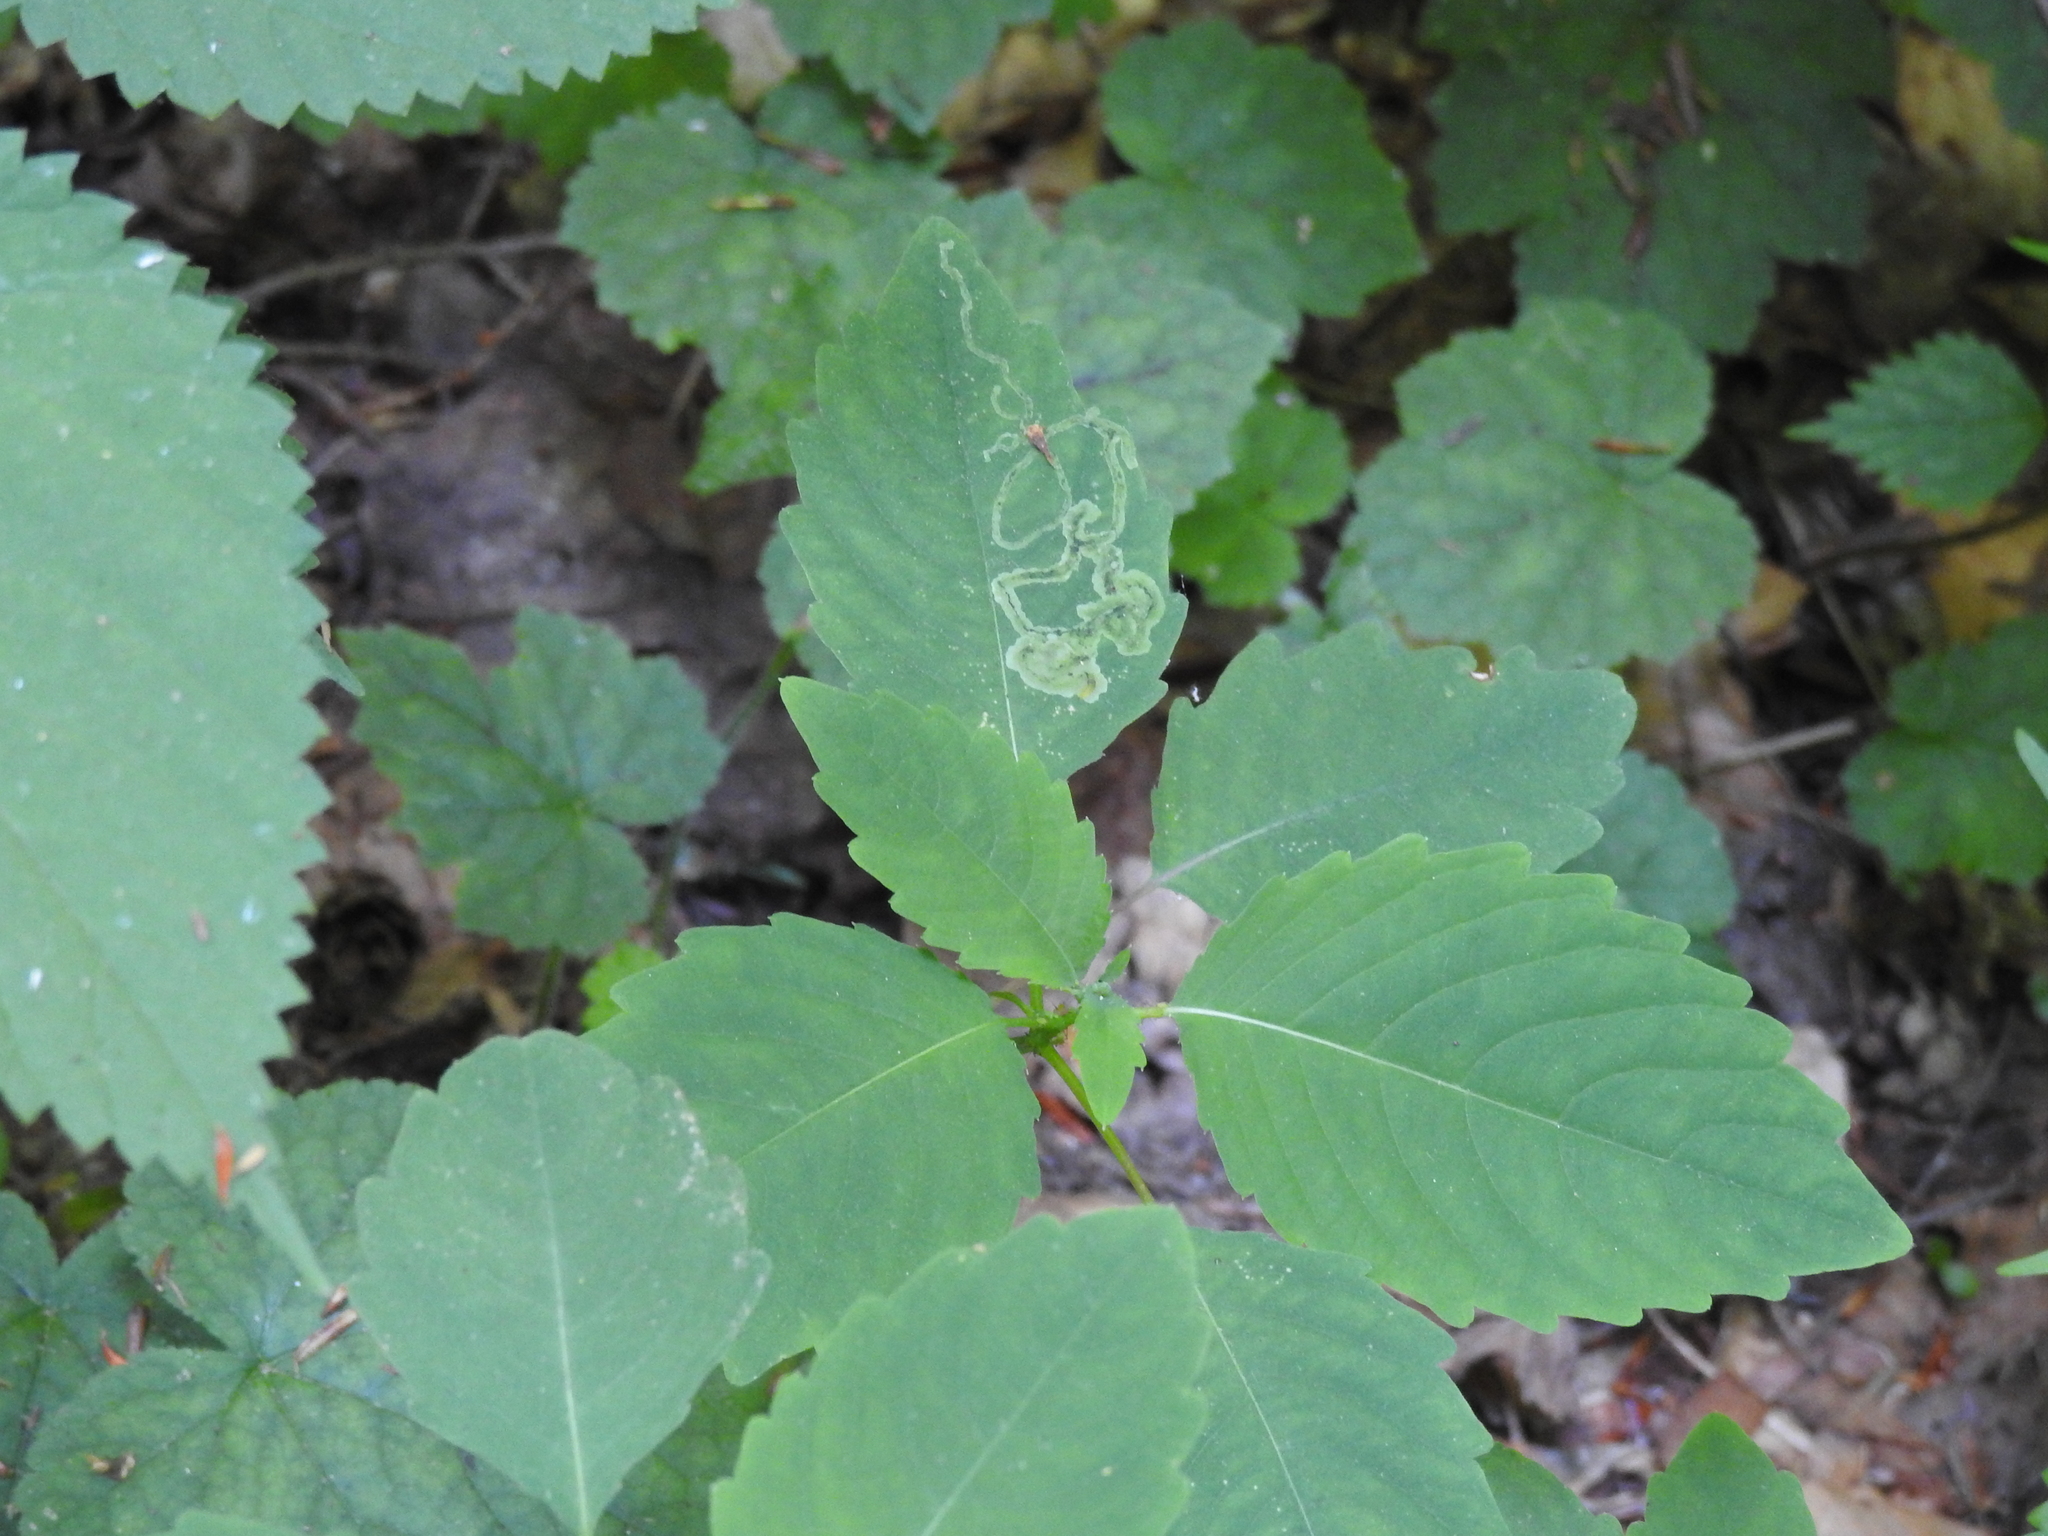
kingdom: Animalia
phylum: Arthropoda
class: Insecta
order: Diptera
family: Agromyzidae
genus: Phytoliriomyza
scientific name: Phytoliriomyza melampyga
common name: Jewelweed leaf-miner fly
